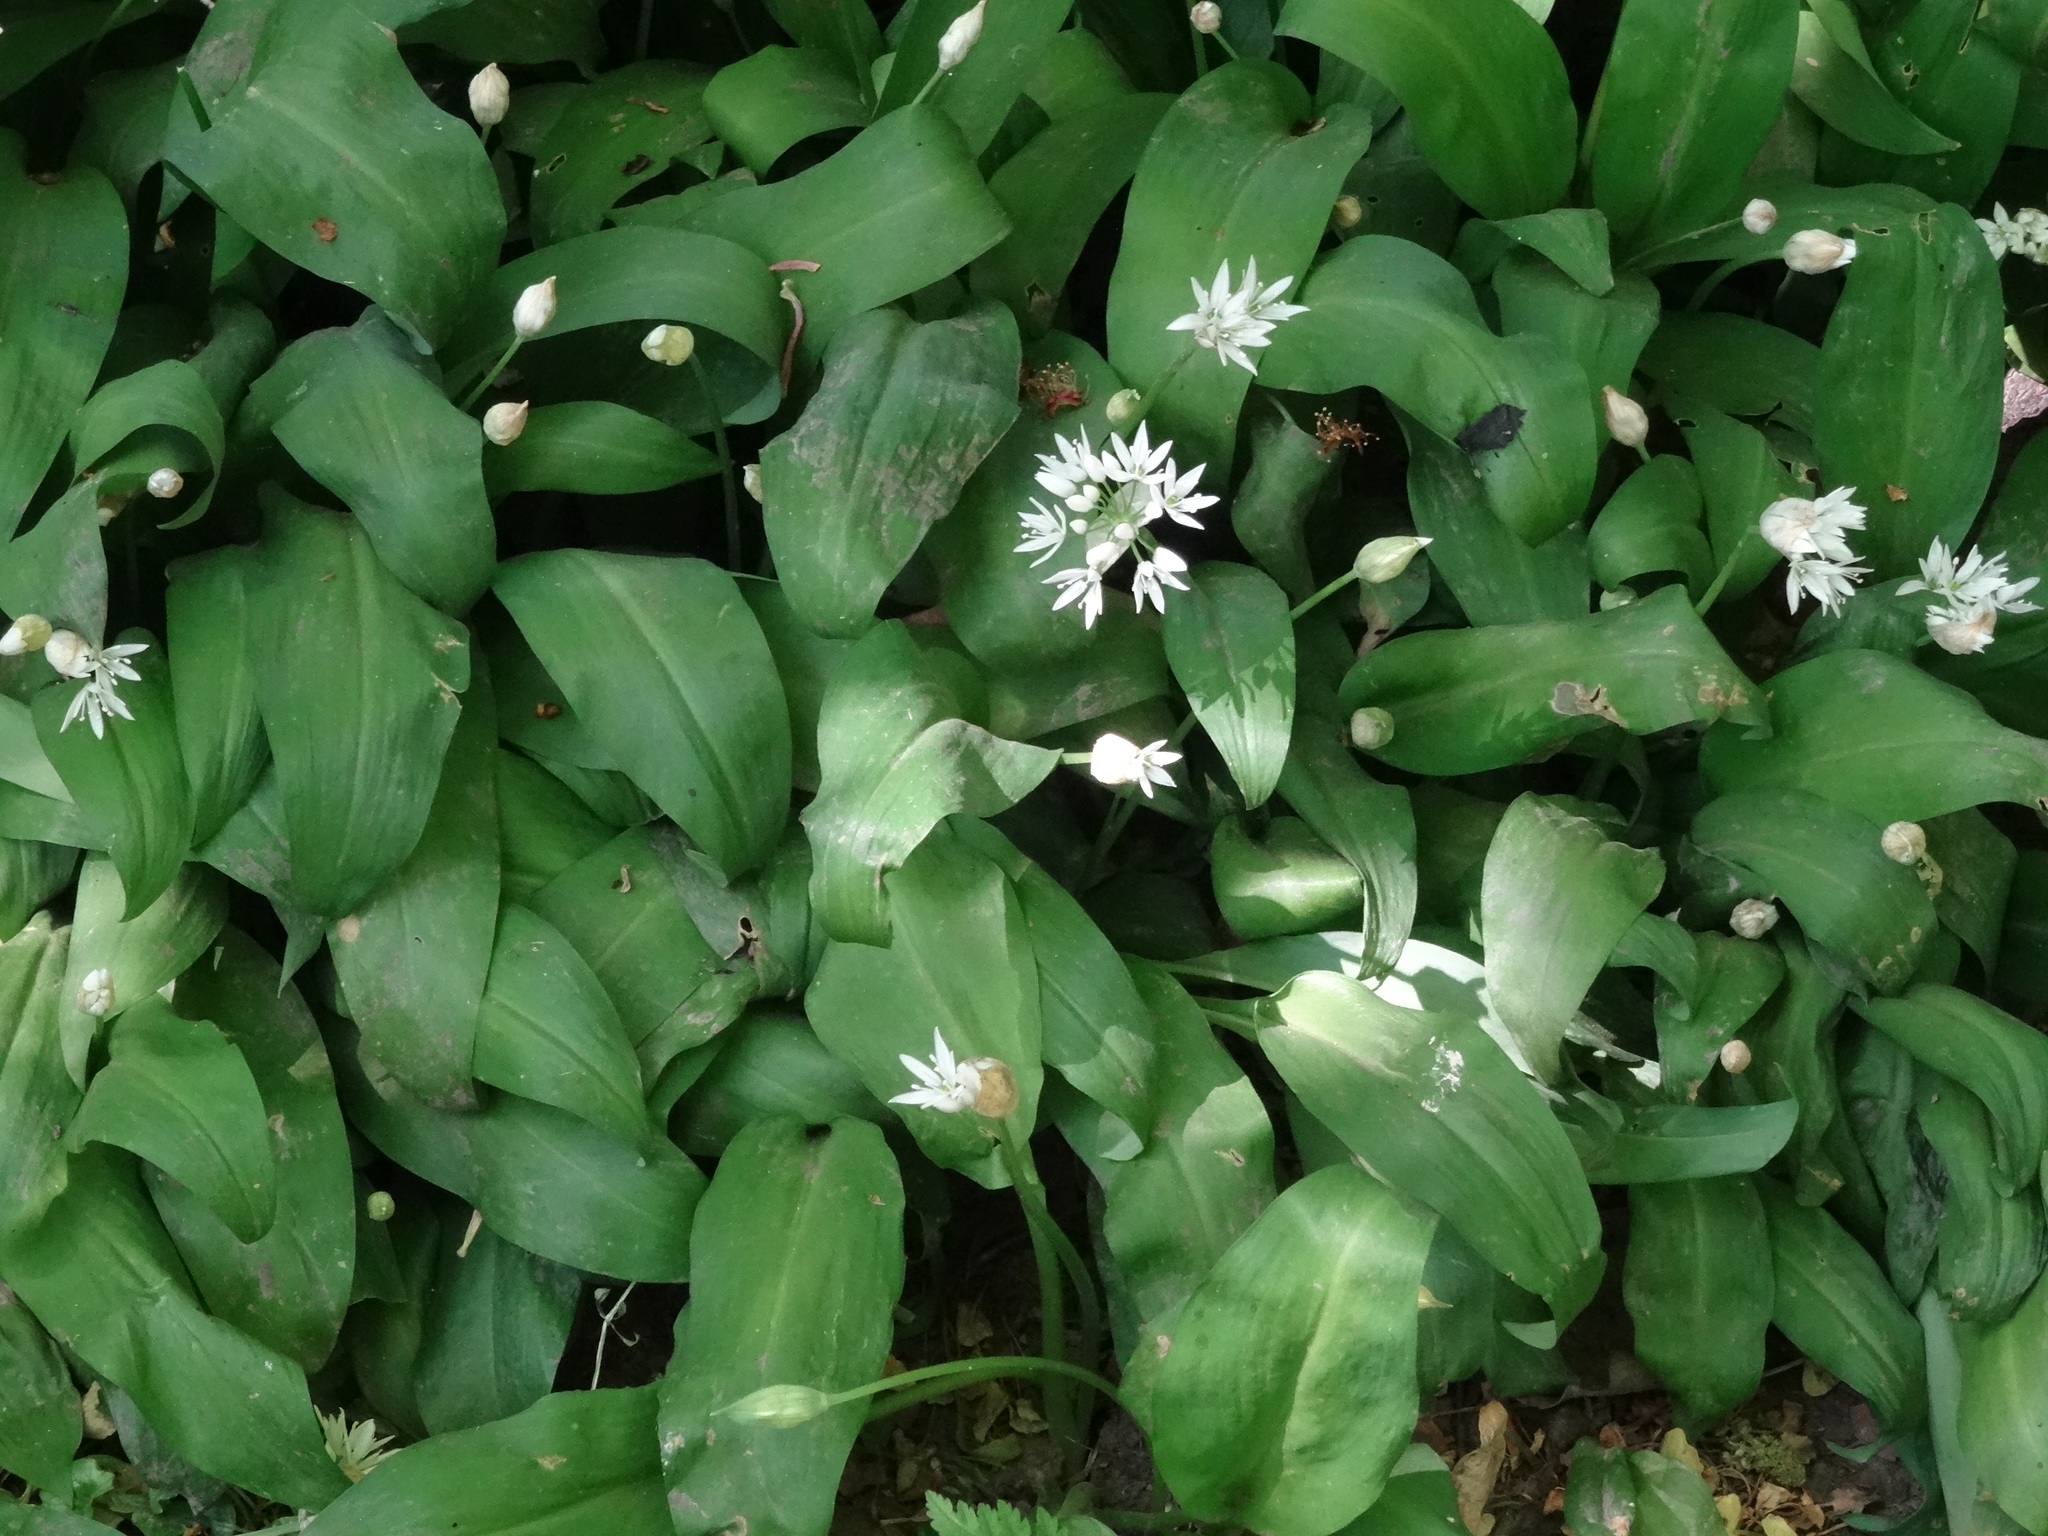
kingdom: Plantae
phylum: Tracheophyta
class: Liliopsida
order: Asparagales
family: Amaryllidaceae
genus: Allium
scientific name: Allium ursinum
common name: Ramsons
